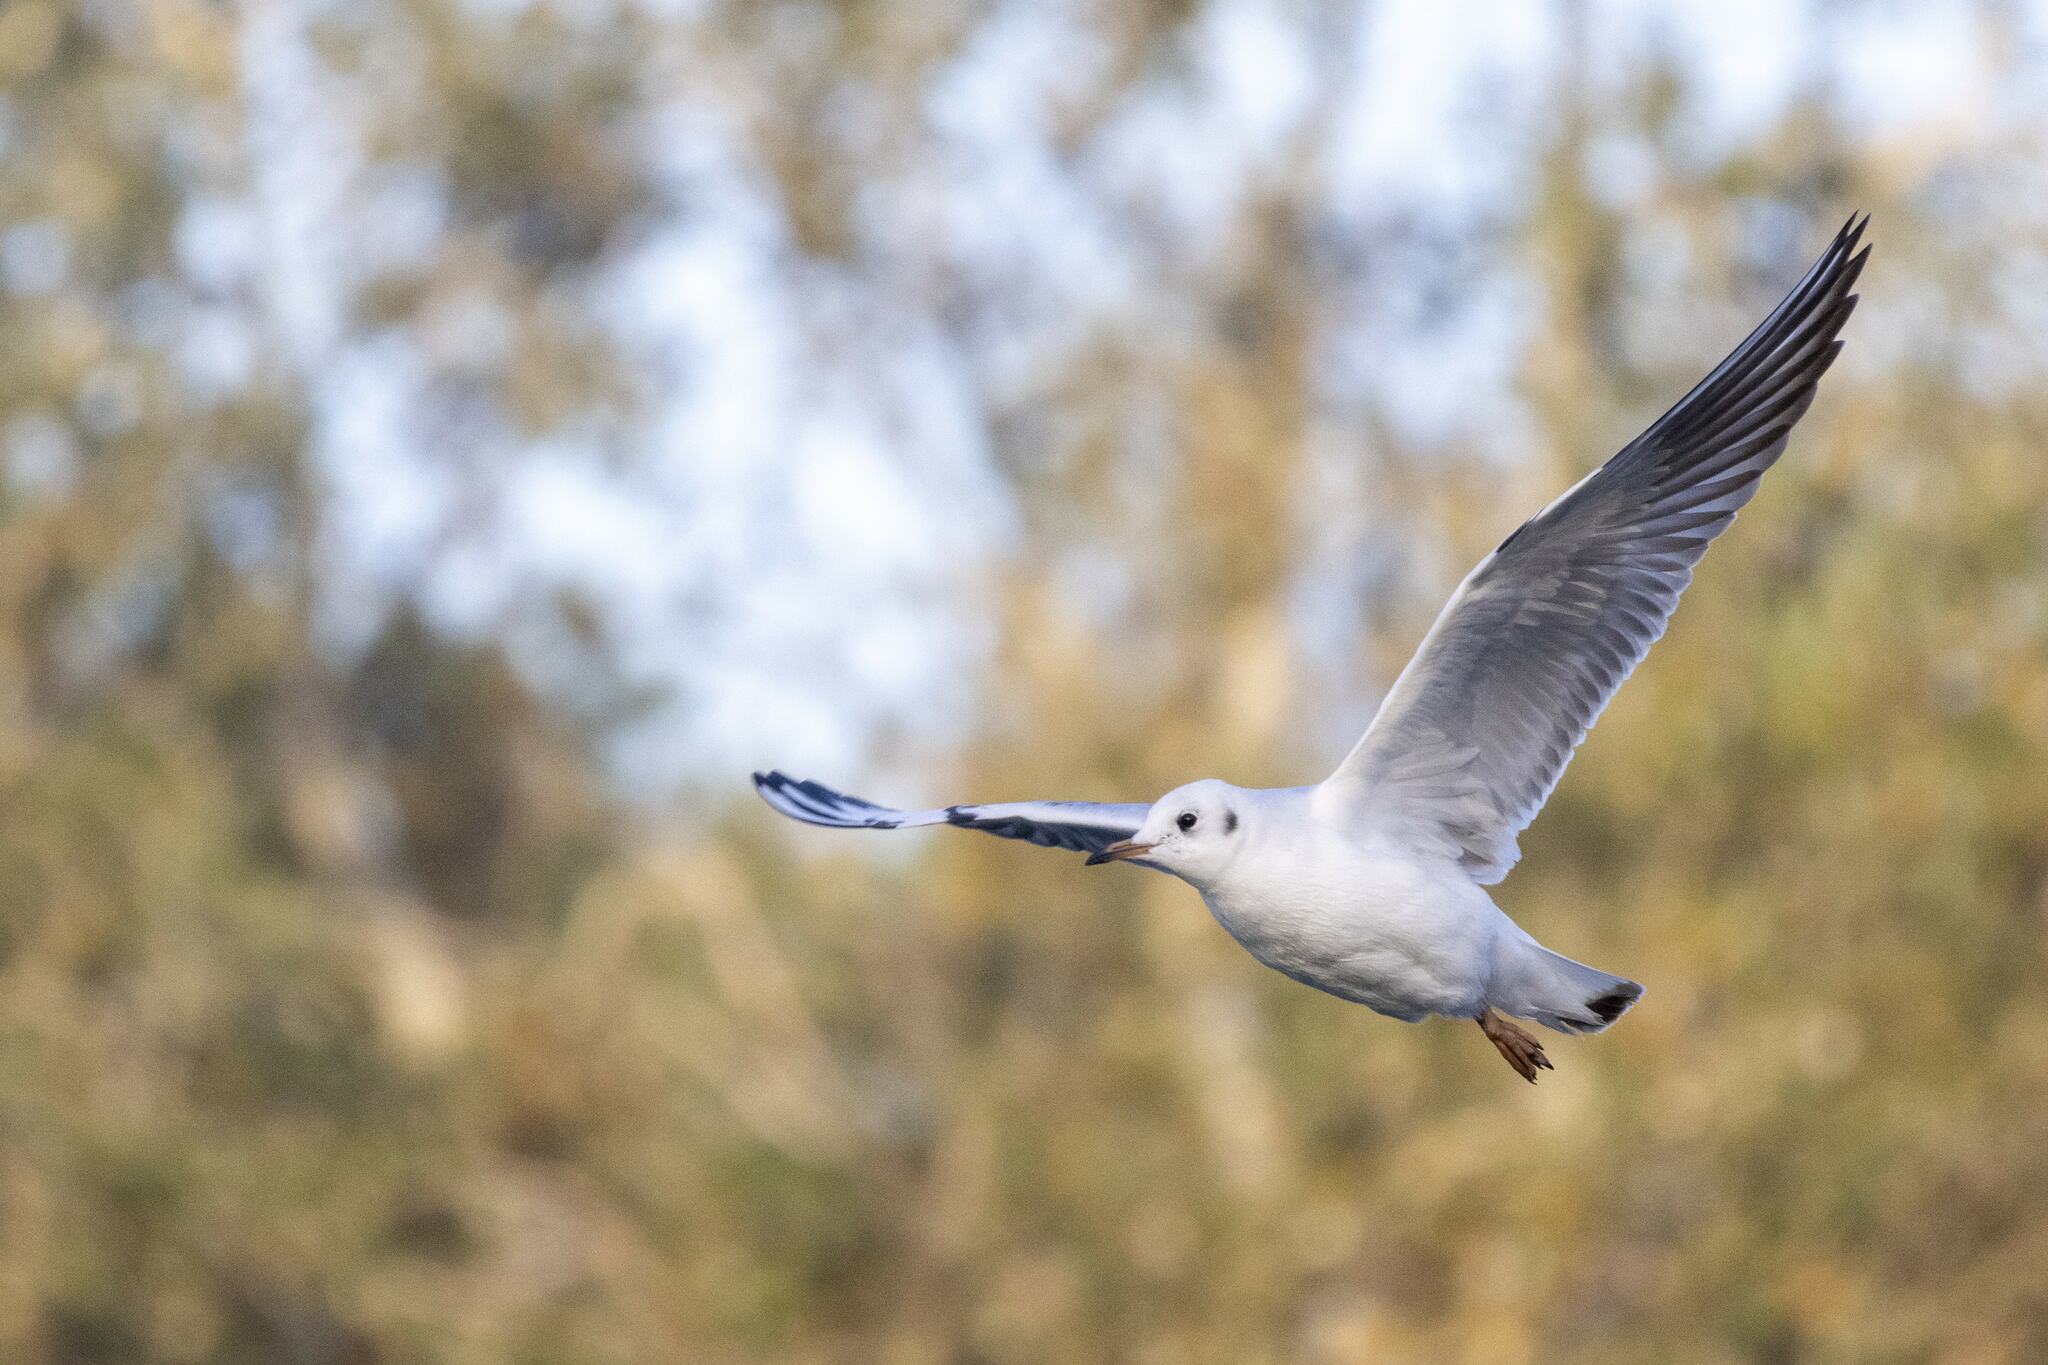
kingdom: Animalia
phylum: Chordata
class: Aves
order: Charadriiformes
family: Laridae
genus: Chroicocephalus
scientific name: Chroicocephalus ridibundus
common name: Black-headed gull
